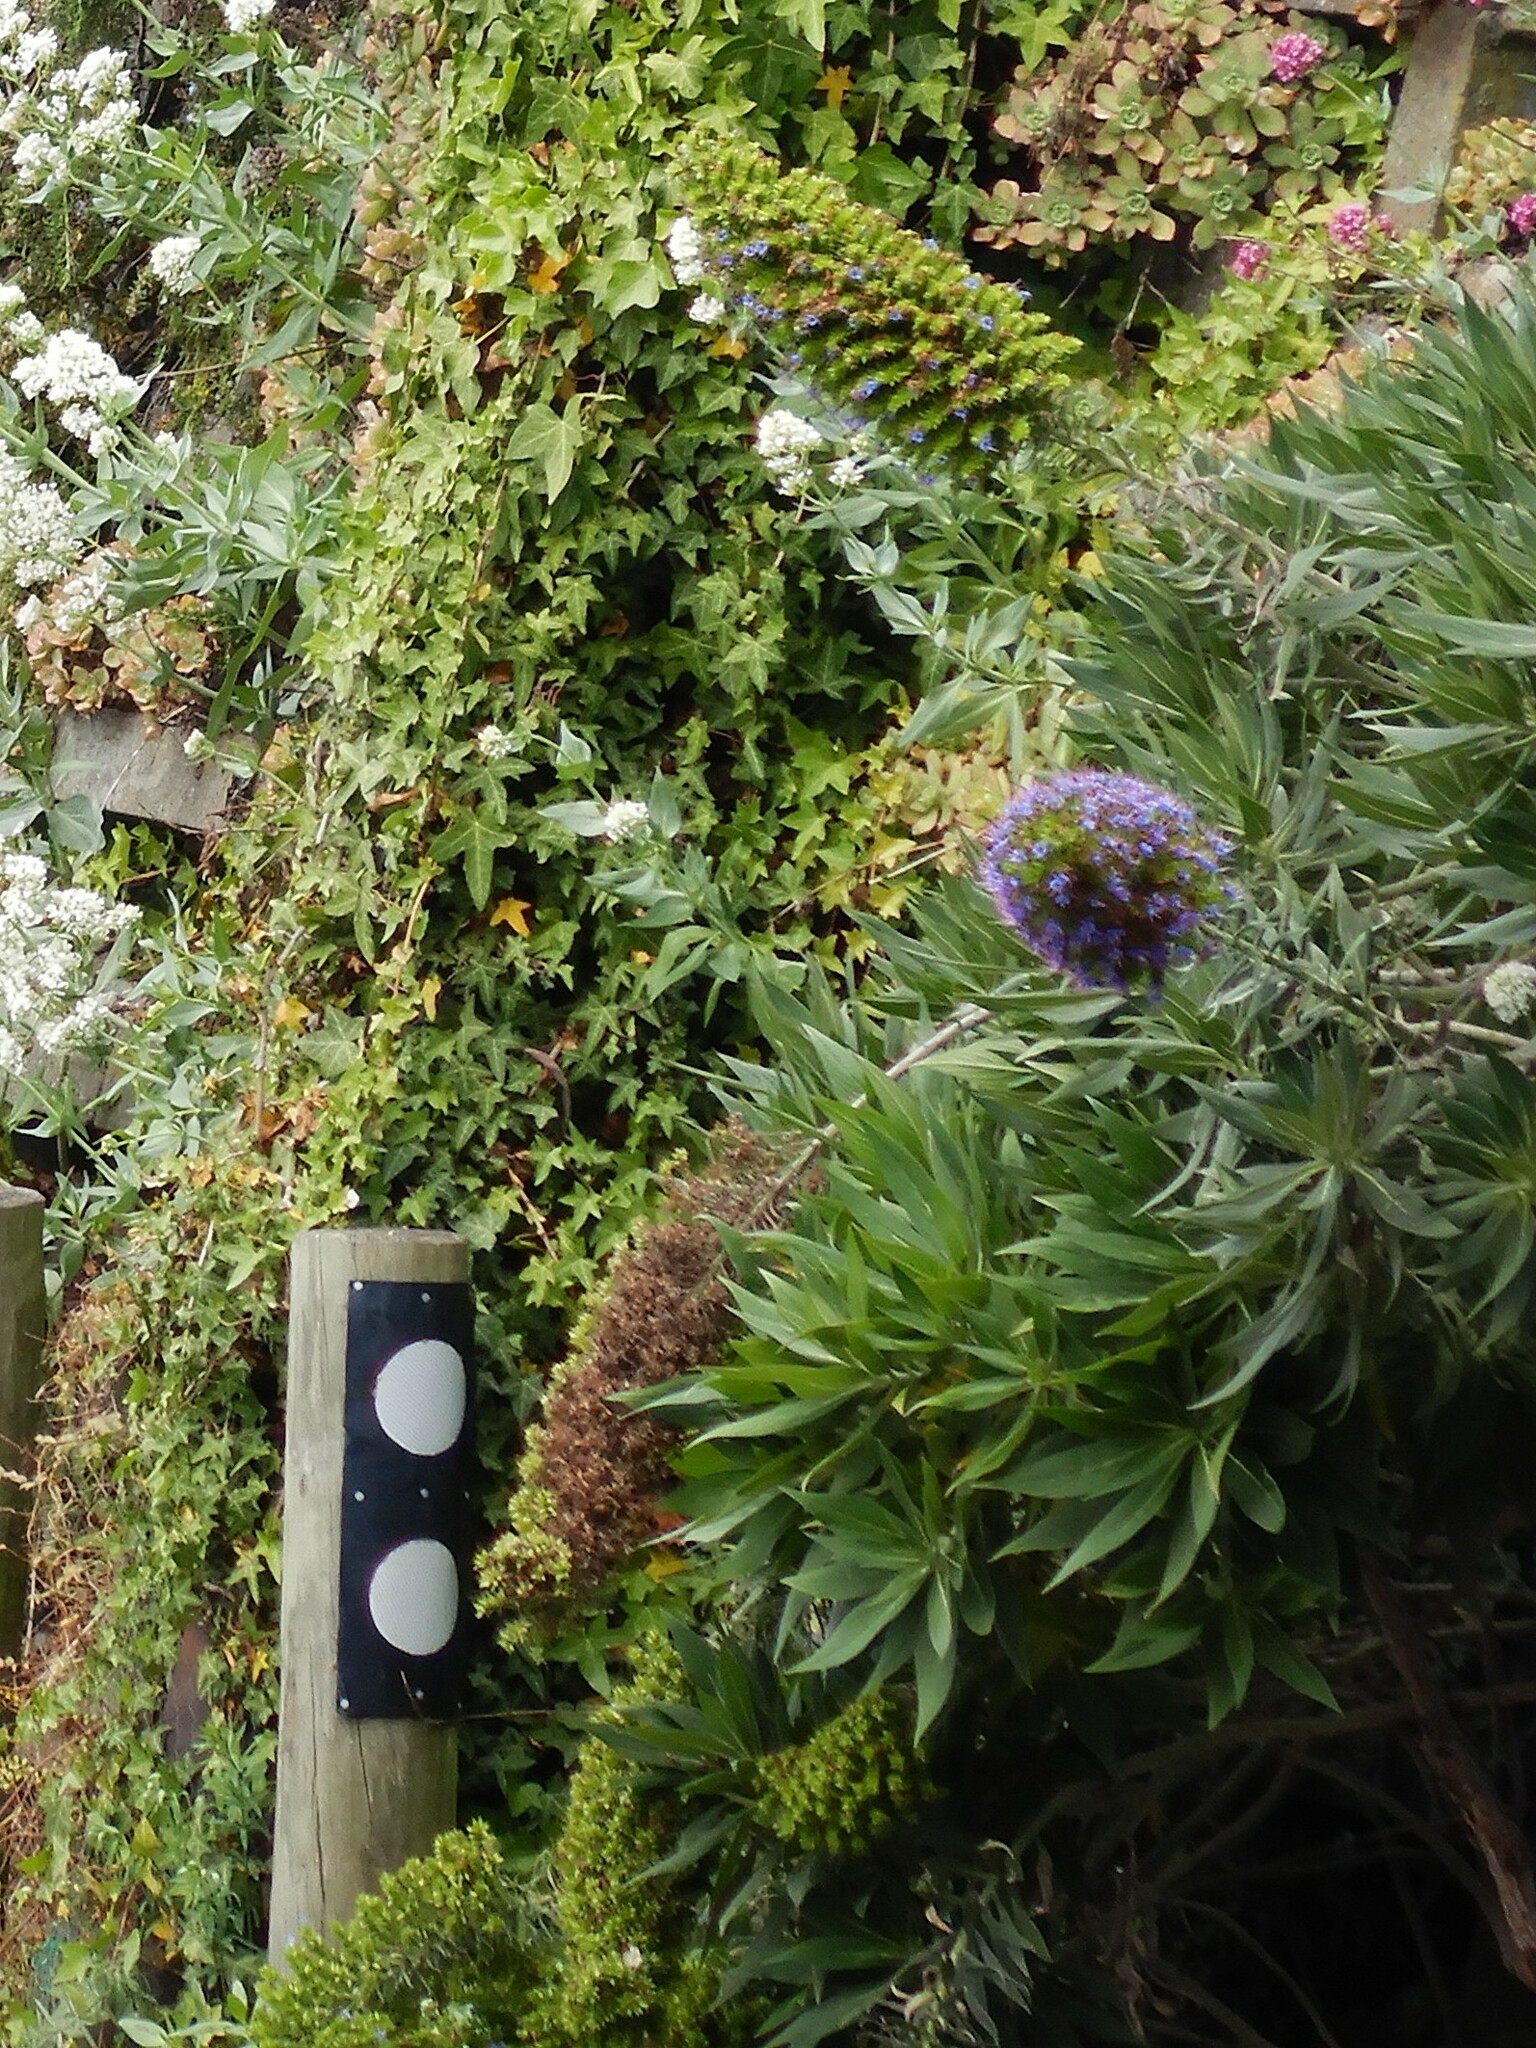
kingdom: Plantae
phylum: Tracheophyta
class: Magnoliopsida
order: Boraginales
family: Boraginaceae
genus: Echium
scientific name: Echium candicans
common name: Pride of madeira
